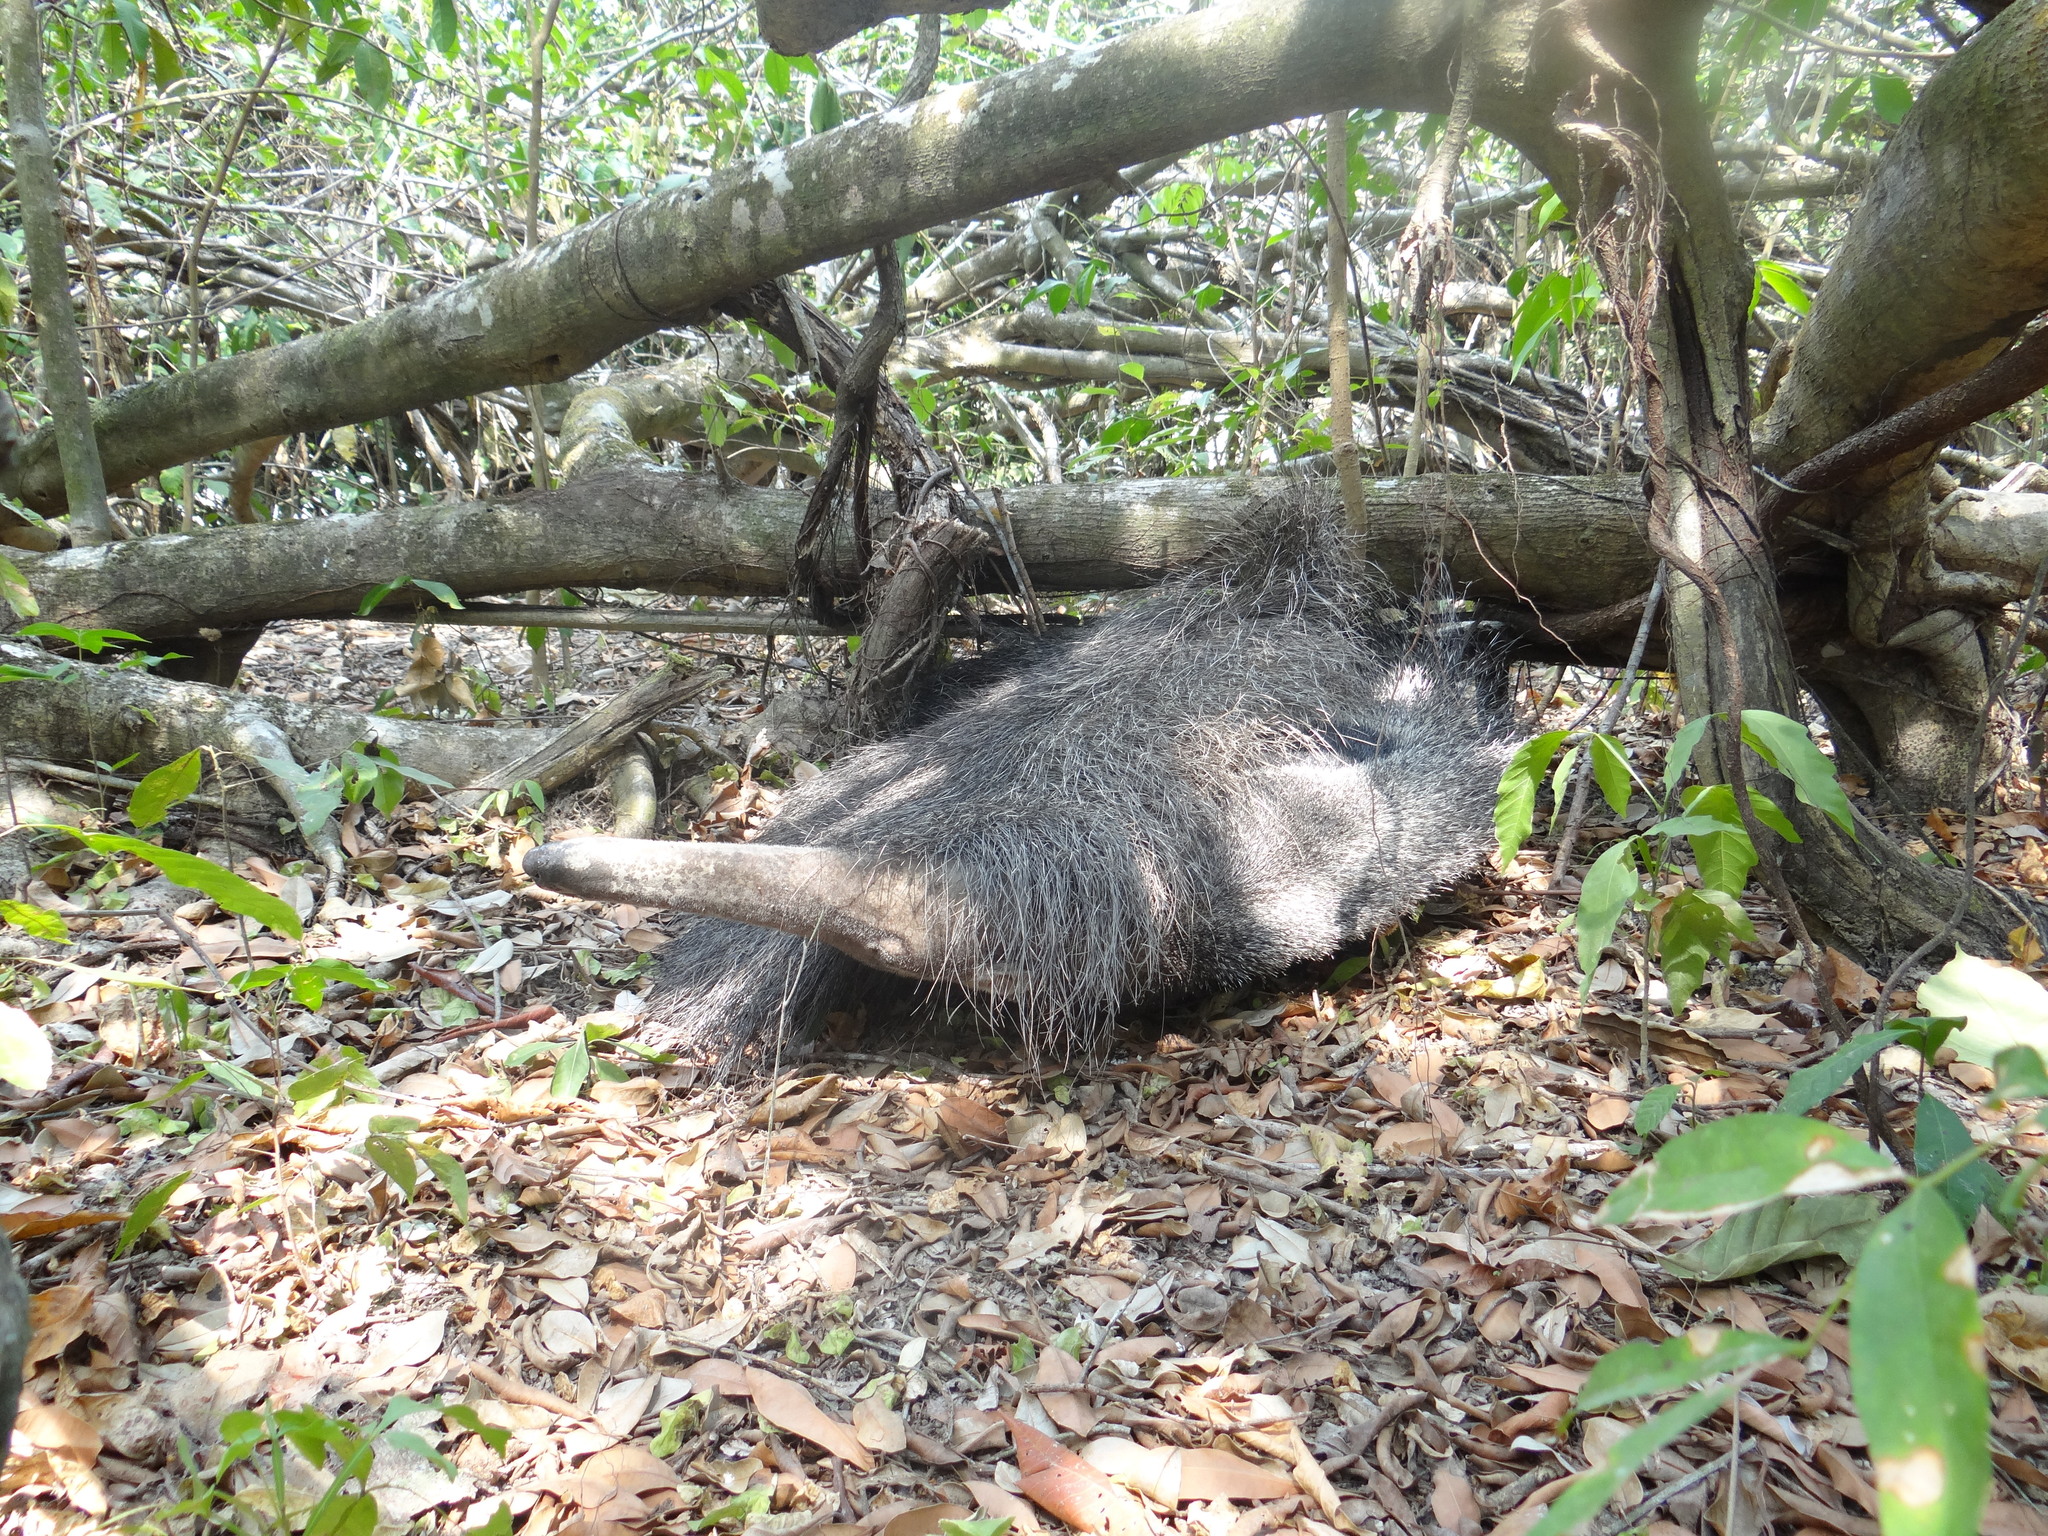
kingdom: Animalia
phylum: Chordata
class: Mammalia
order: Pilosa
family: Myrmecophagidae
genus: Myrmecophaga
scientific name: Myrmecophaga tridactyla
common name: Giant anteater
